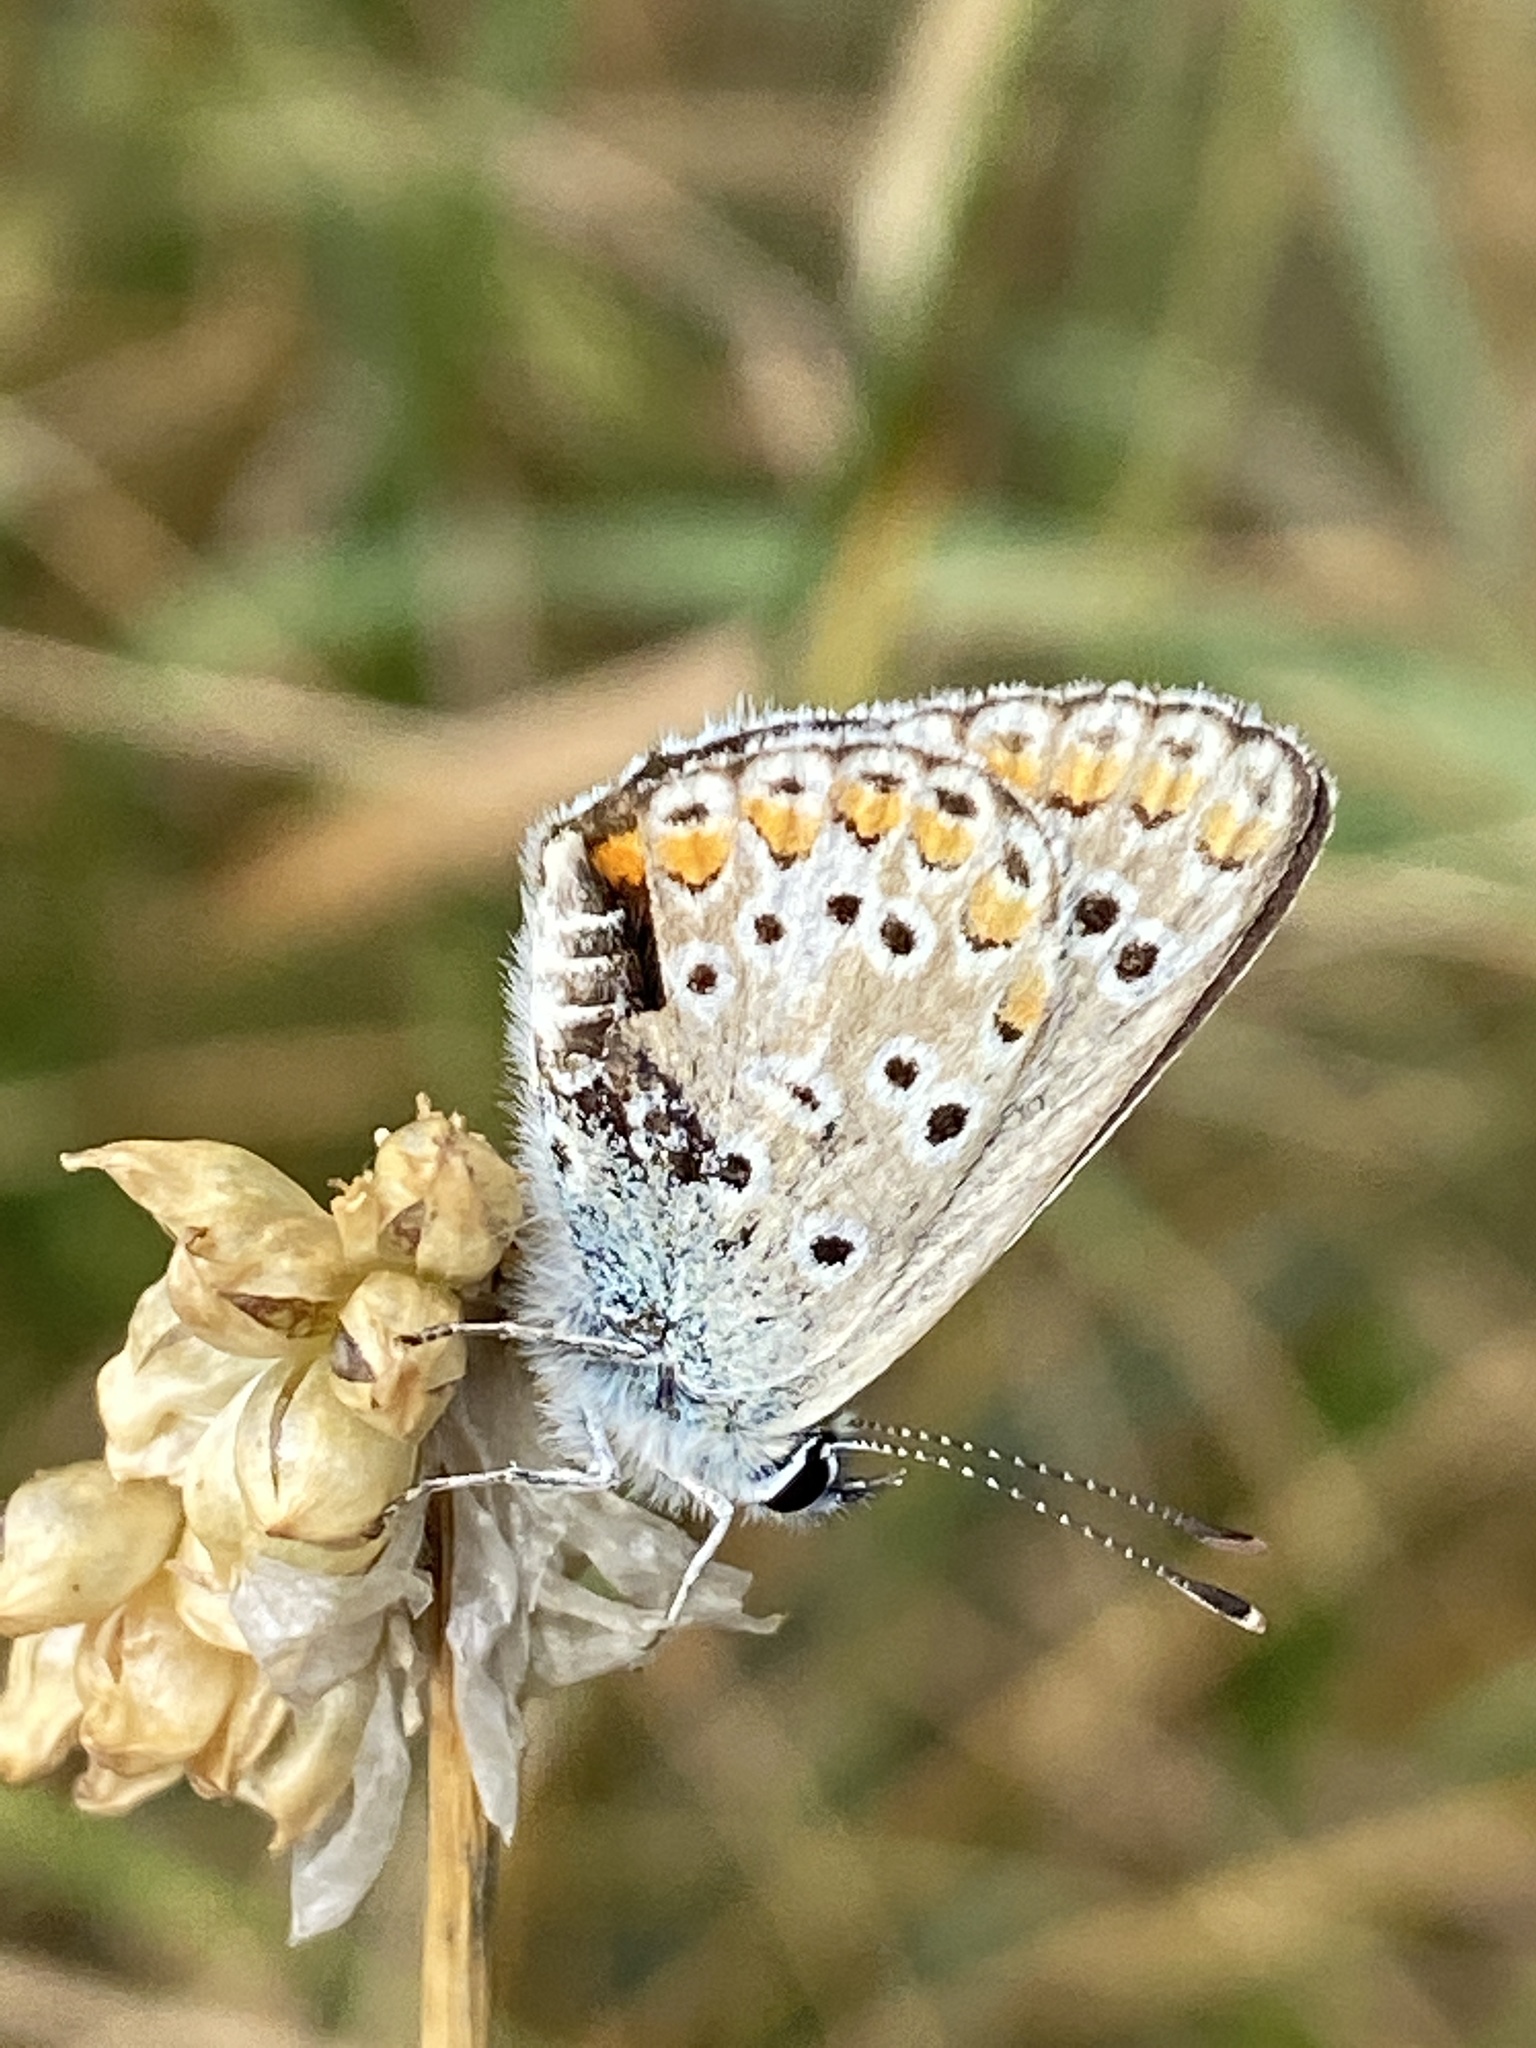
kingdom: Animalia
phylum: Arthropoda
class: Insecta
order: Lepidoptera
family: Lycaenidae
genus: Aricia
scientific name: Aricia agestis
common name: Brown argus
